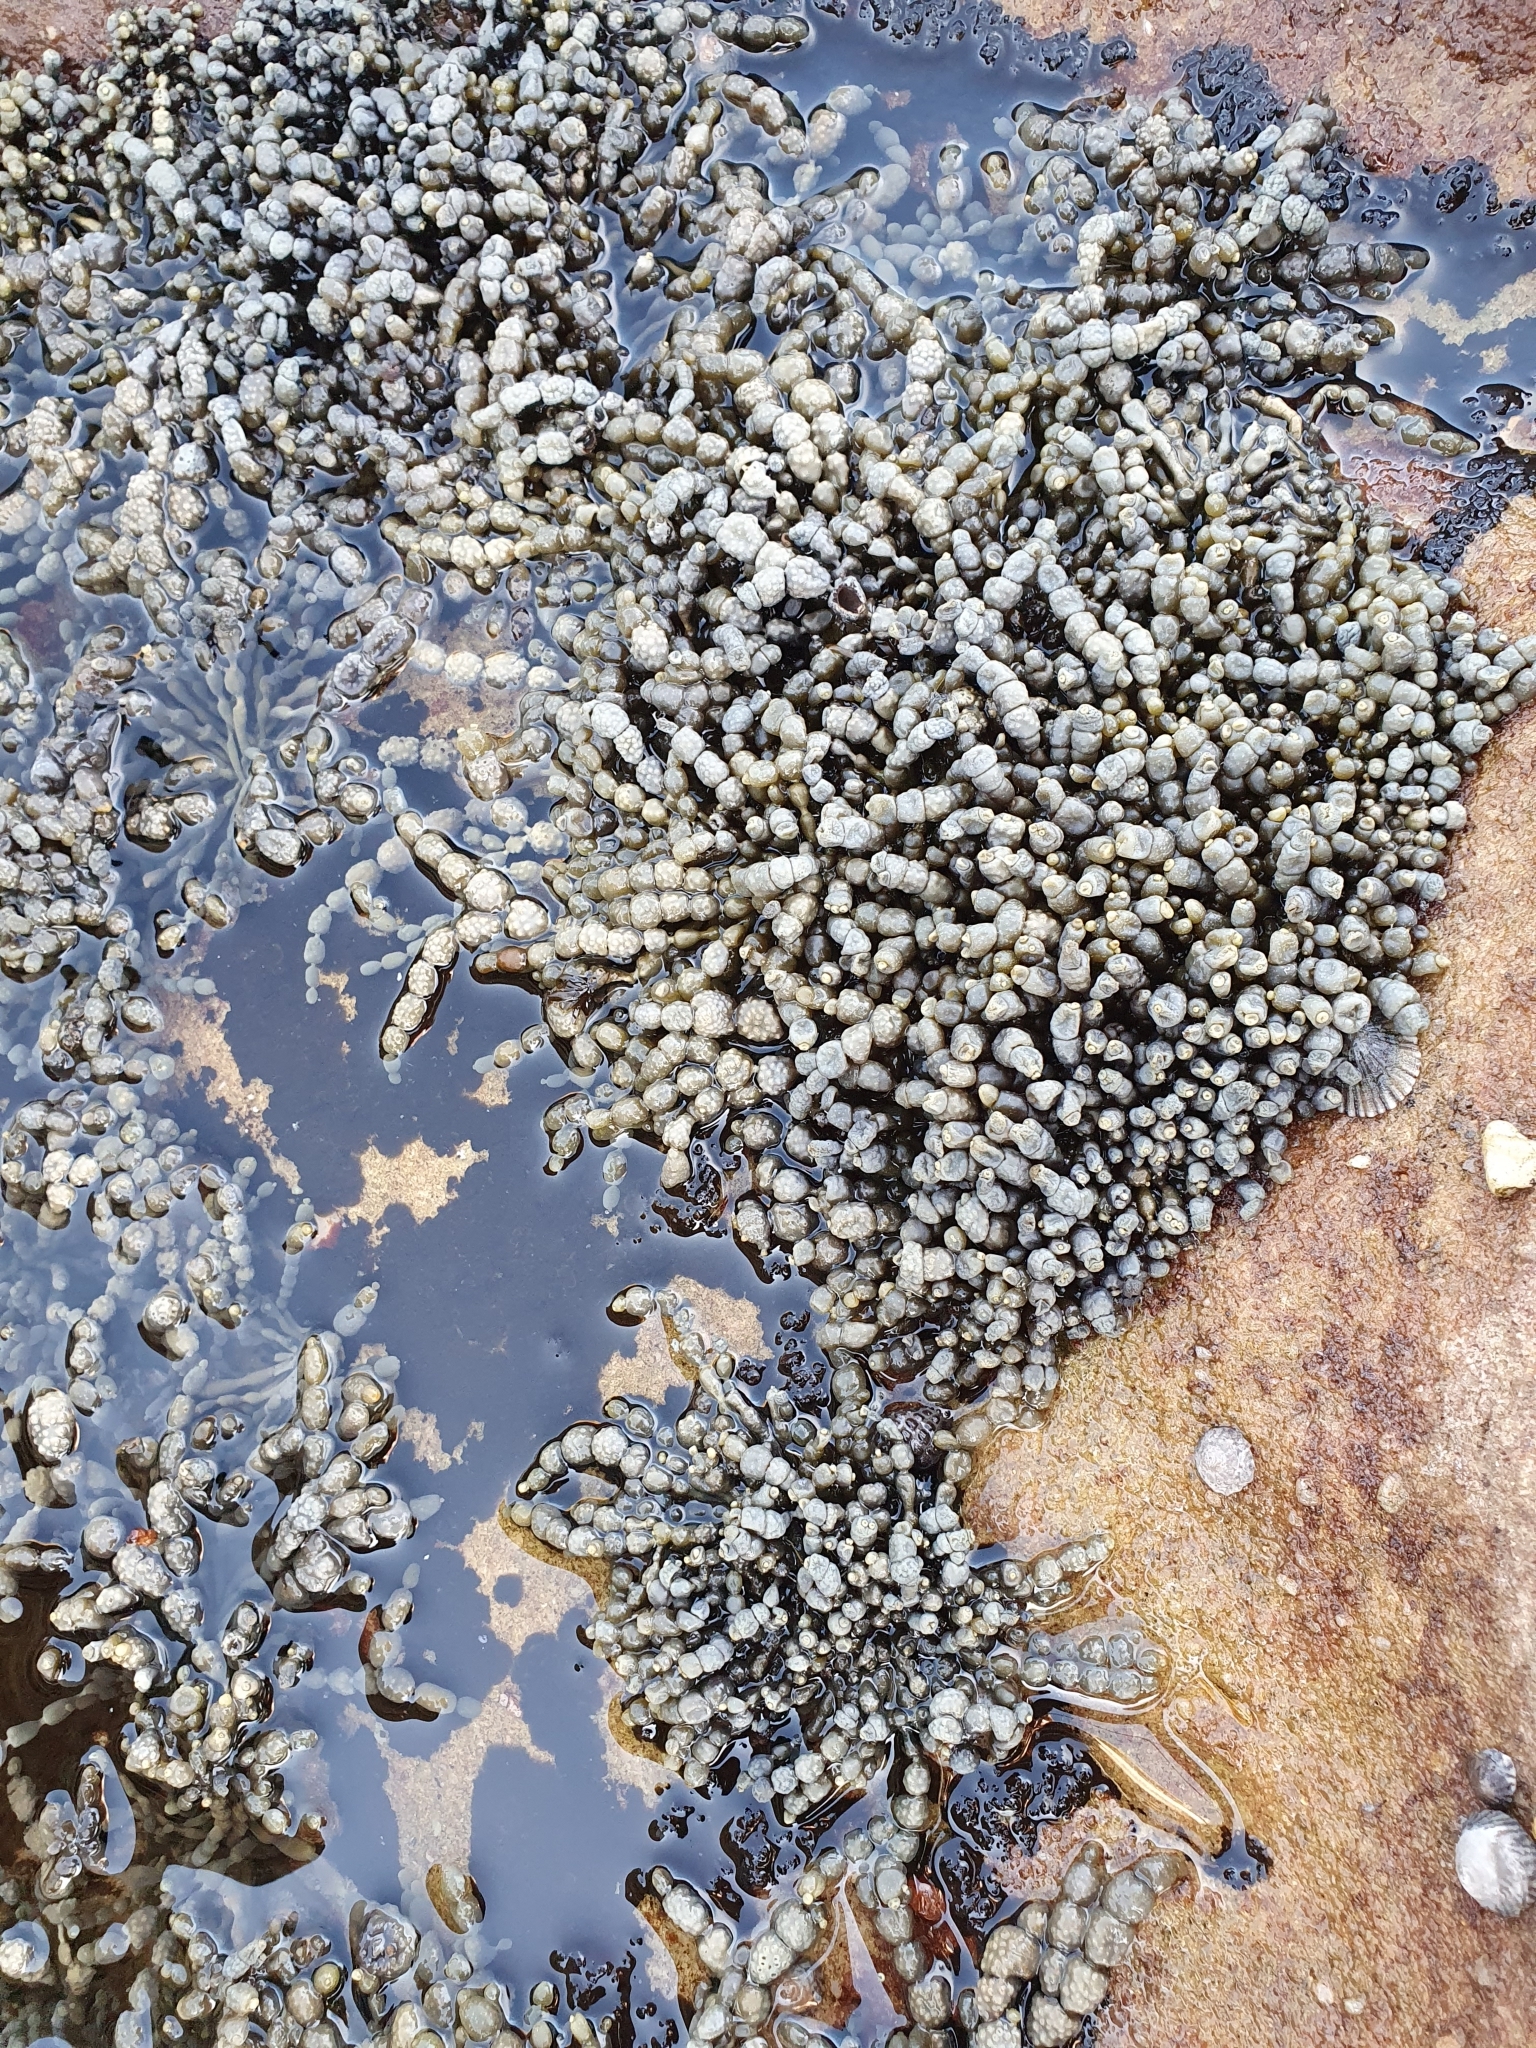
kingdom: Chromista
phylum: Ochrophyta
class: Phaeophyceae
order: Fucales
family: Hormosiraceae
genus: Hormosira
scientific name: Hormosira banksii
